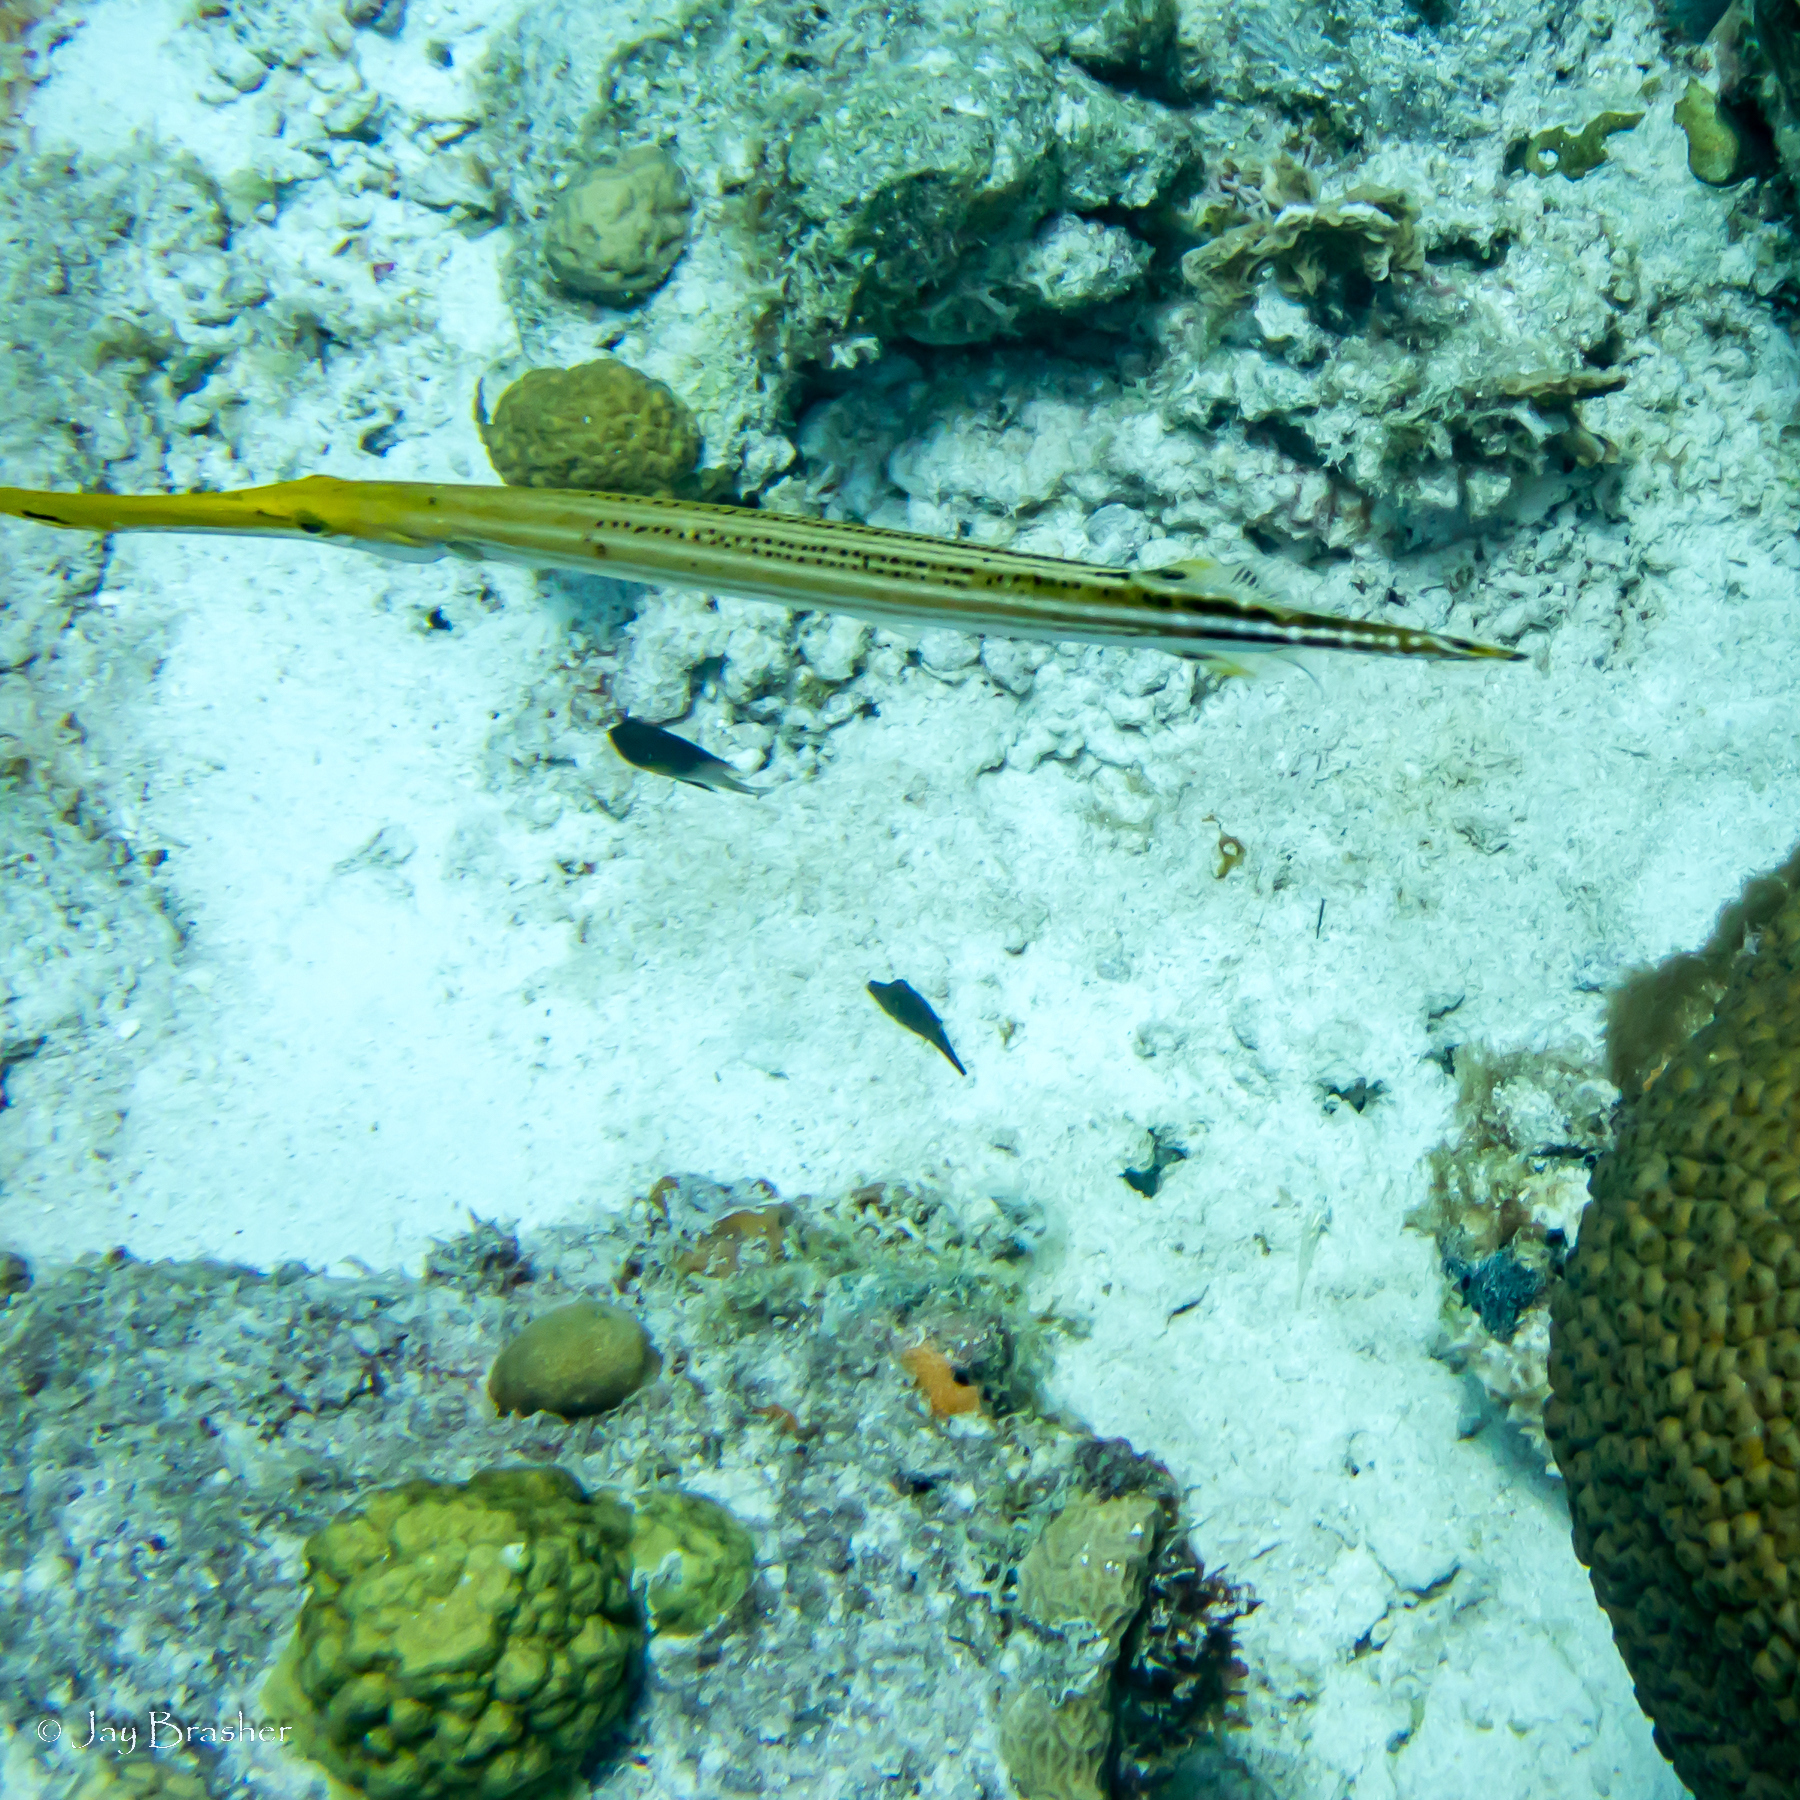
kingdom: Animalia
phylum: Chordata
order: Syngnathiformes
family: Aulostomidae
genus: Aulostomus
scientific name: Aulostomus maculatus
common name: West atlantic trumpetfish
